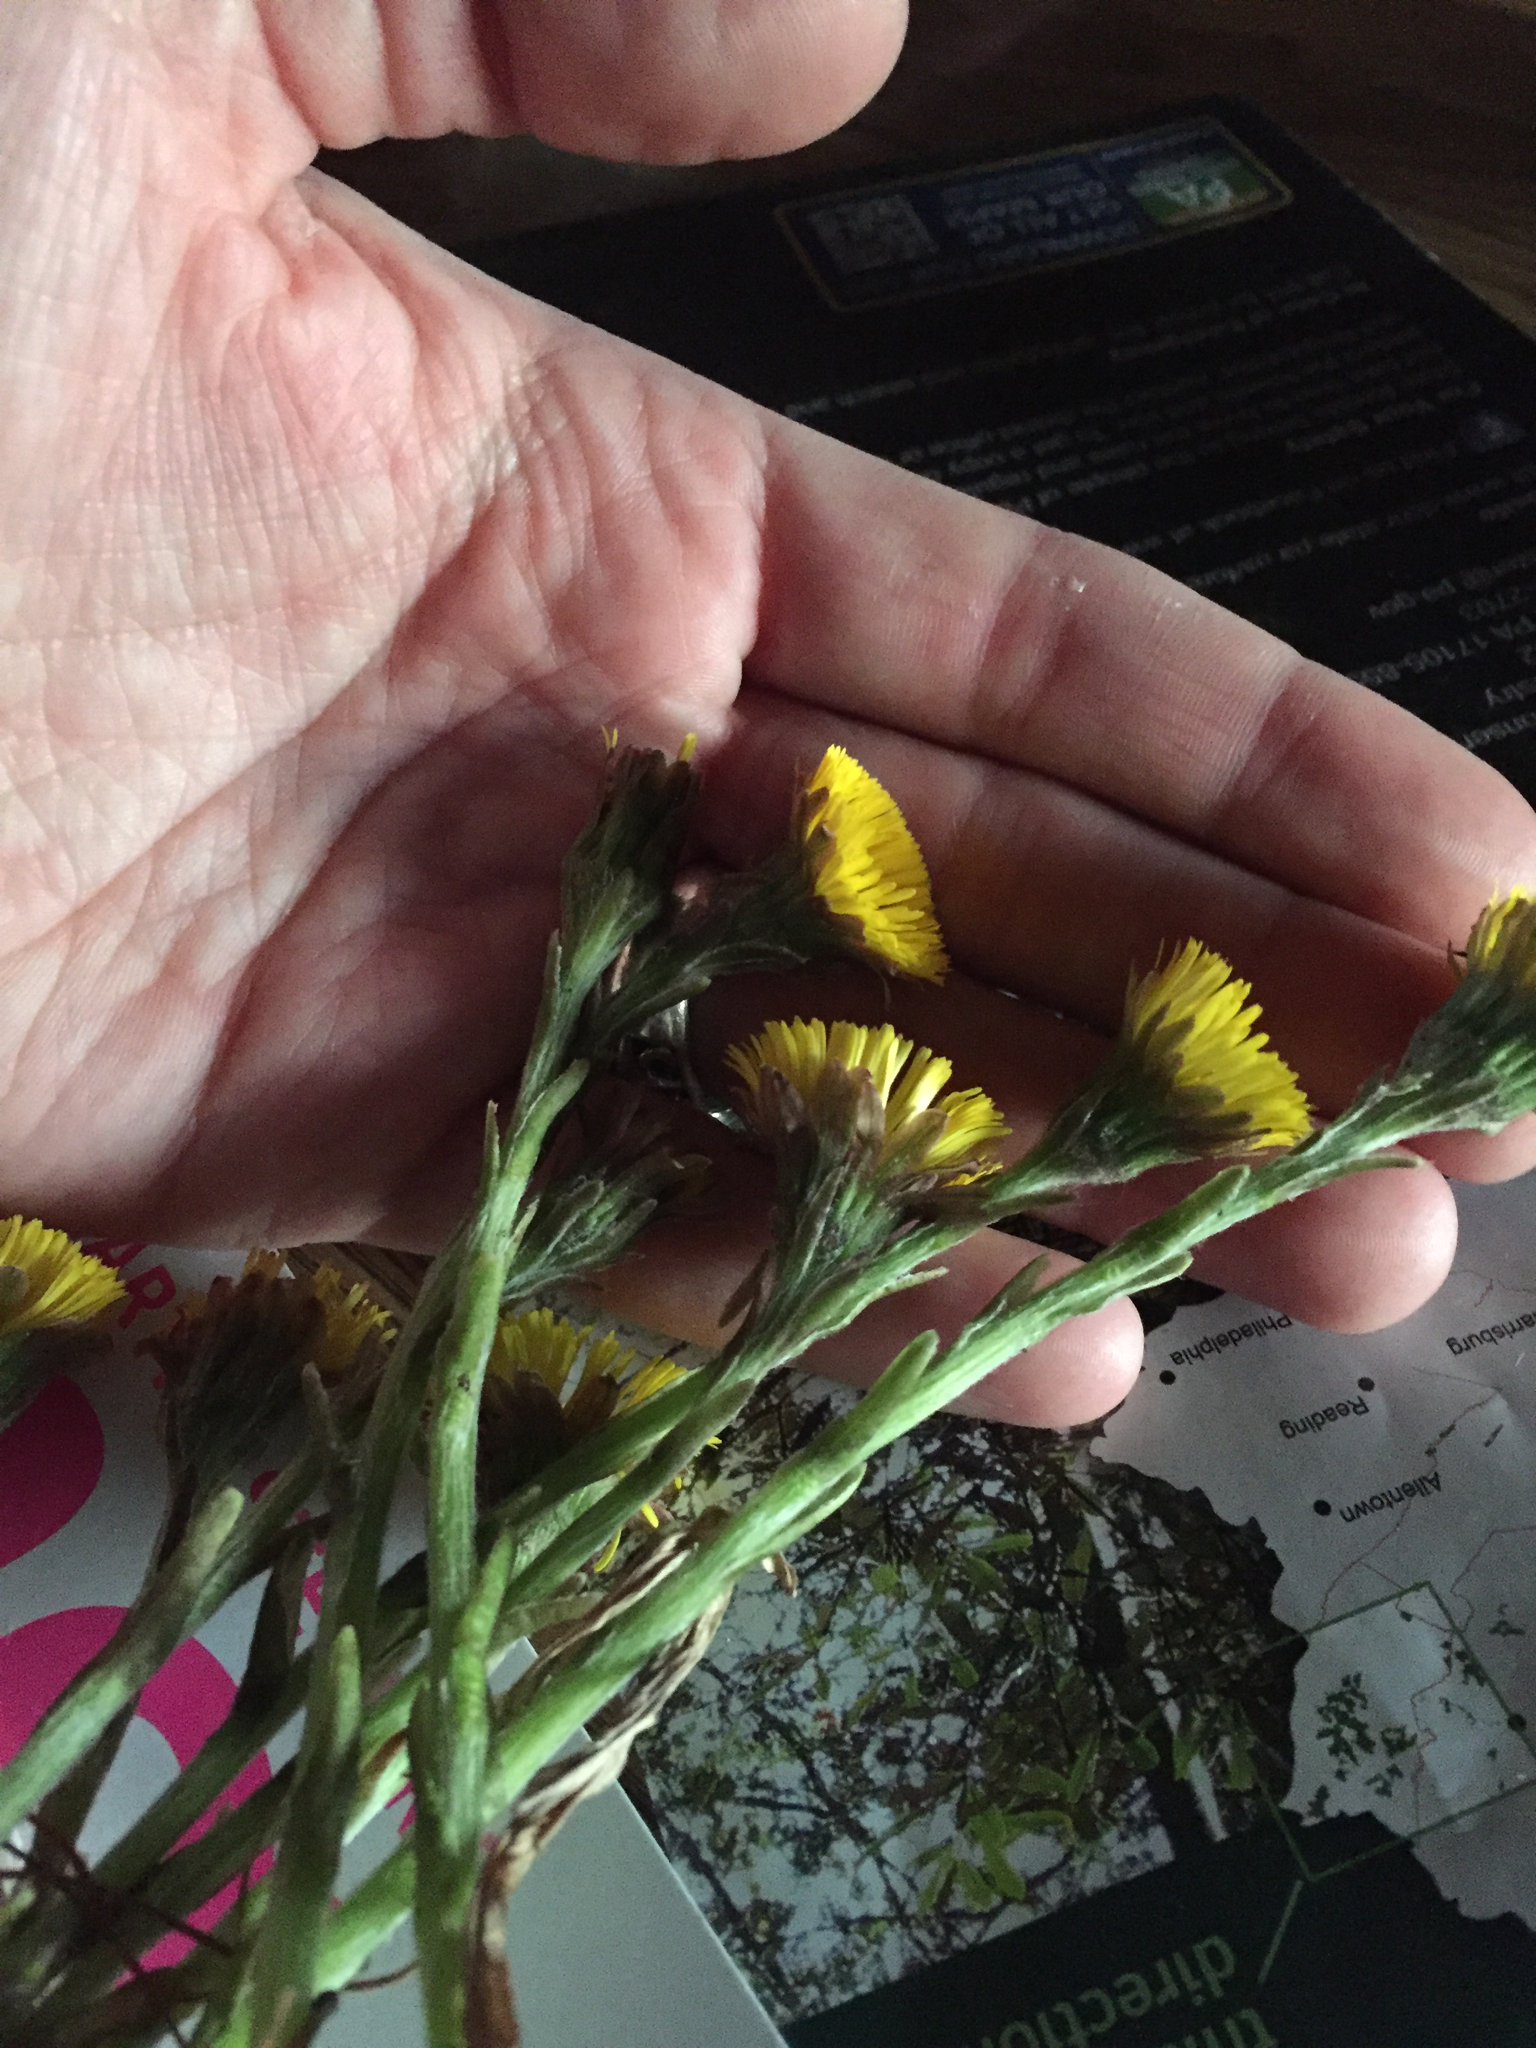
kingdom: Plantae
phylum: Tracheophyta
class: Magnoliopsida
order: Asterales
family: Asteraceae
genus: Tussilago
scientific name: Tussilago farfara
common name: Coltsfoot
